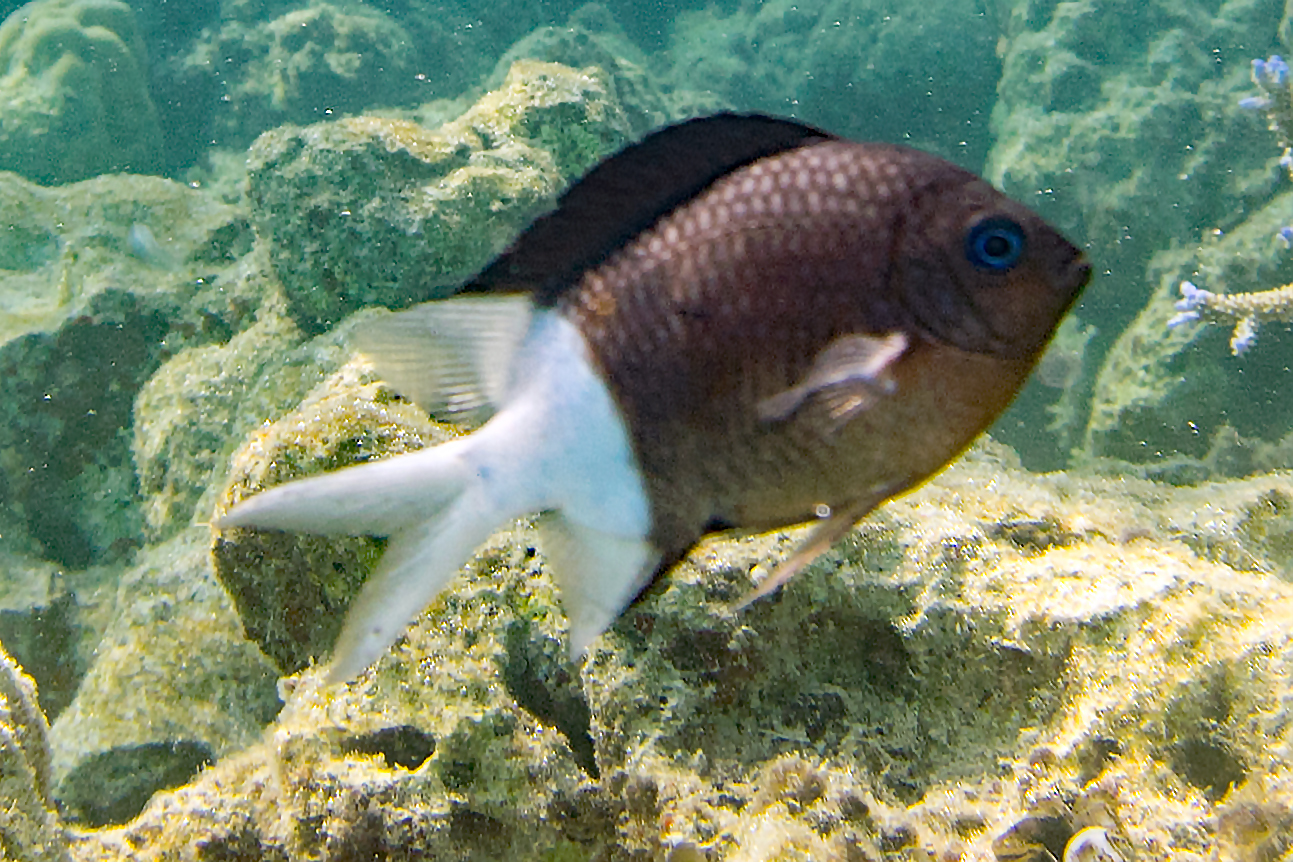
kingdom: Animalia
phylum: Chordata
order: Perciformes
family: Pomacentridae
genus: Acanthochromis
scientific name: Acanthochromis polyacanthus
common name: Spiny chromis
